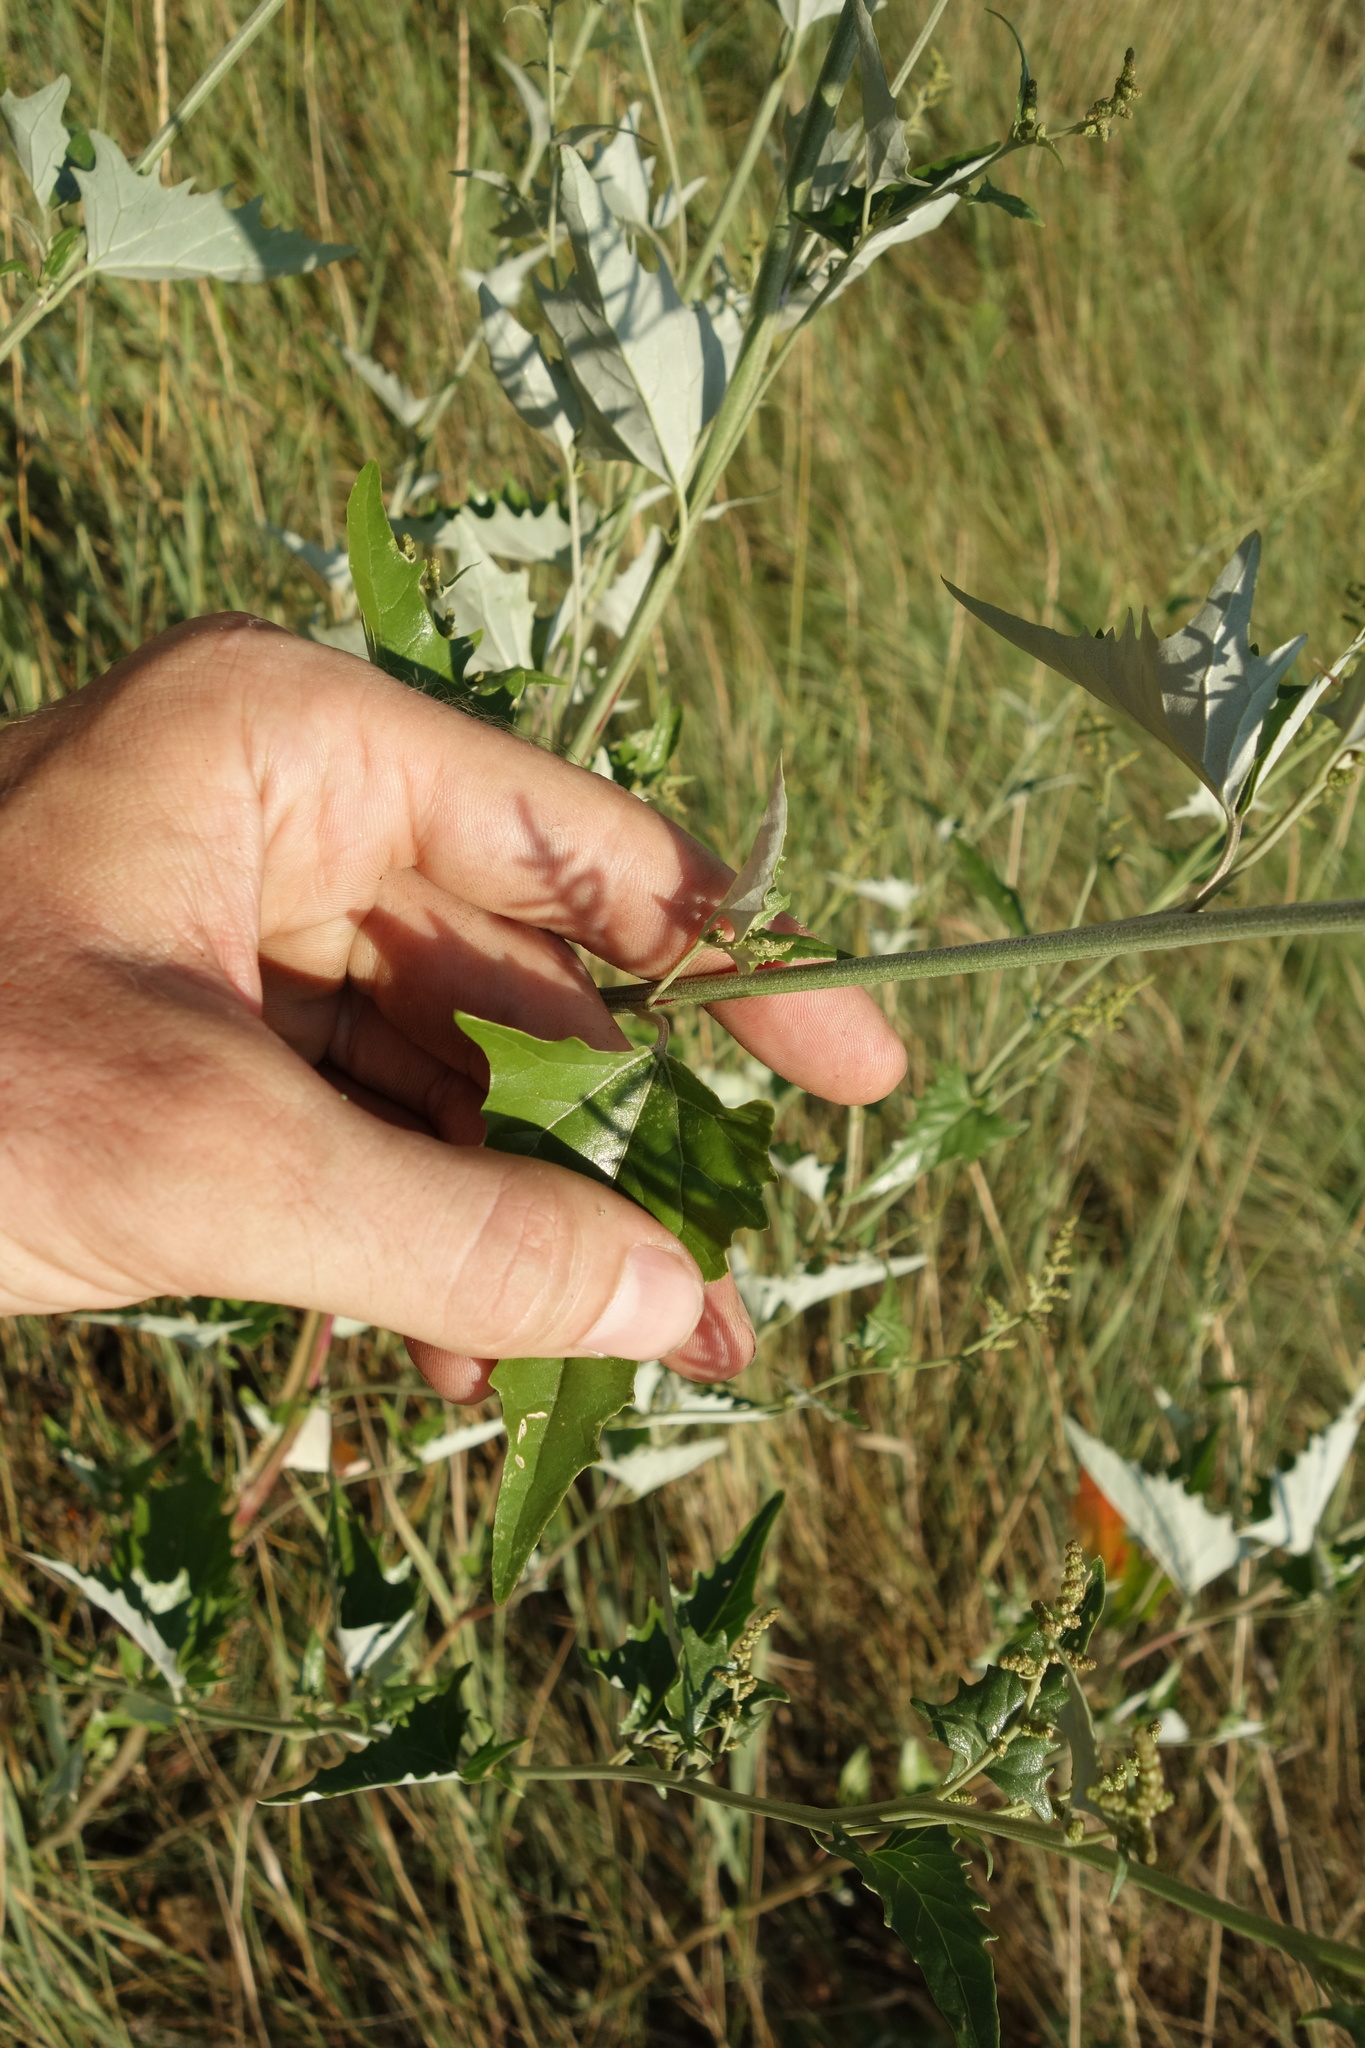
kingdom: Plantae
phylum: Tracheophyta
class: Magnoliopsida
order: Caryophyllales
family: Amaranthaceae
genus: Atriplex
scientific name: Atriplex sagittata
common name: Purple orache
